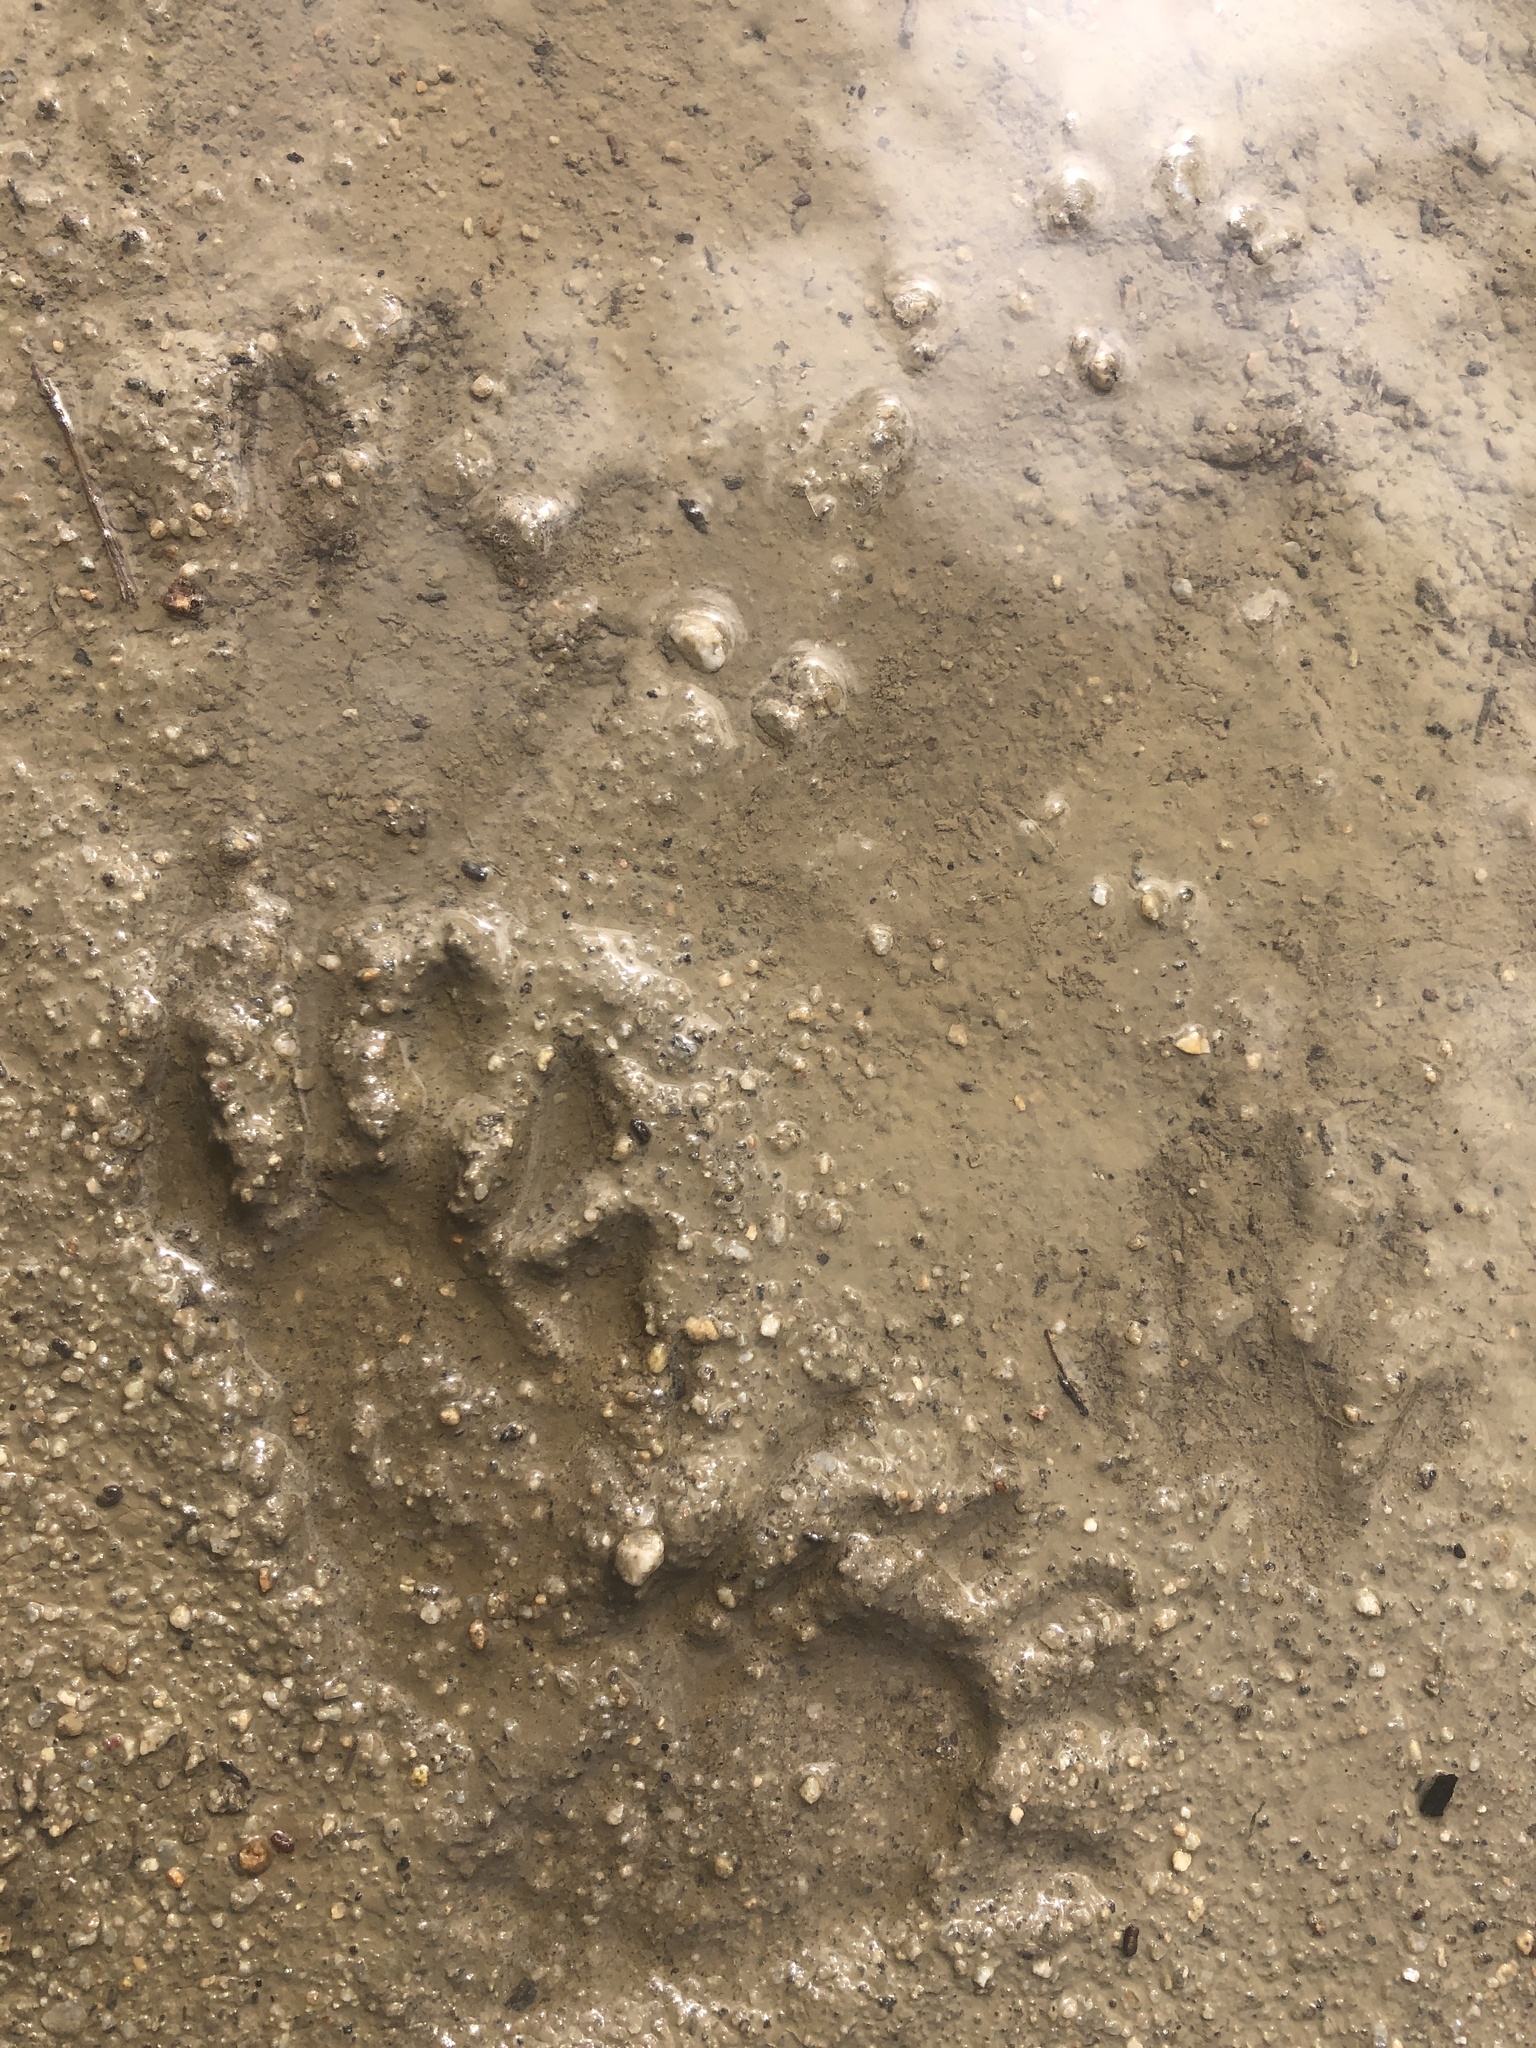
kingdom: Animalia
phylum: Chordata
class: Mammalia
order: Carnivora
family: Procyonidae
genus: Procyon
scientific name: Procyon lotor
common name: Raccoon
